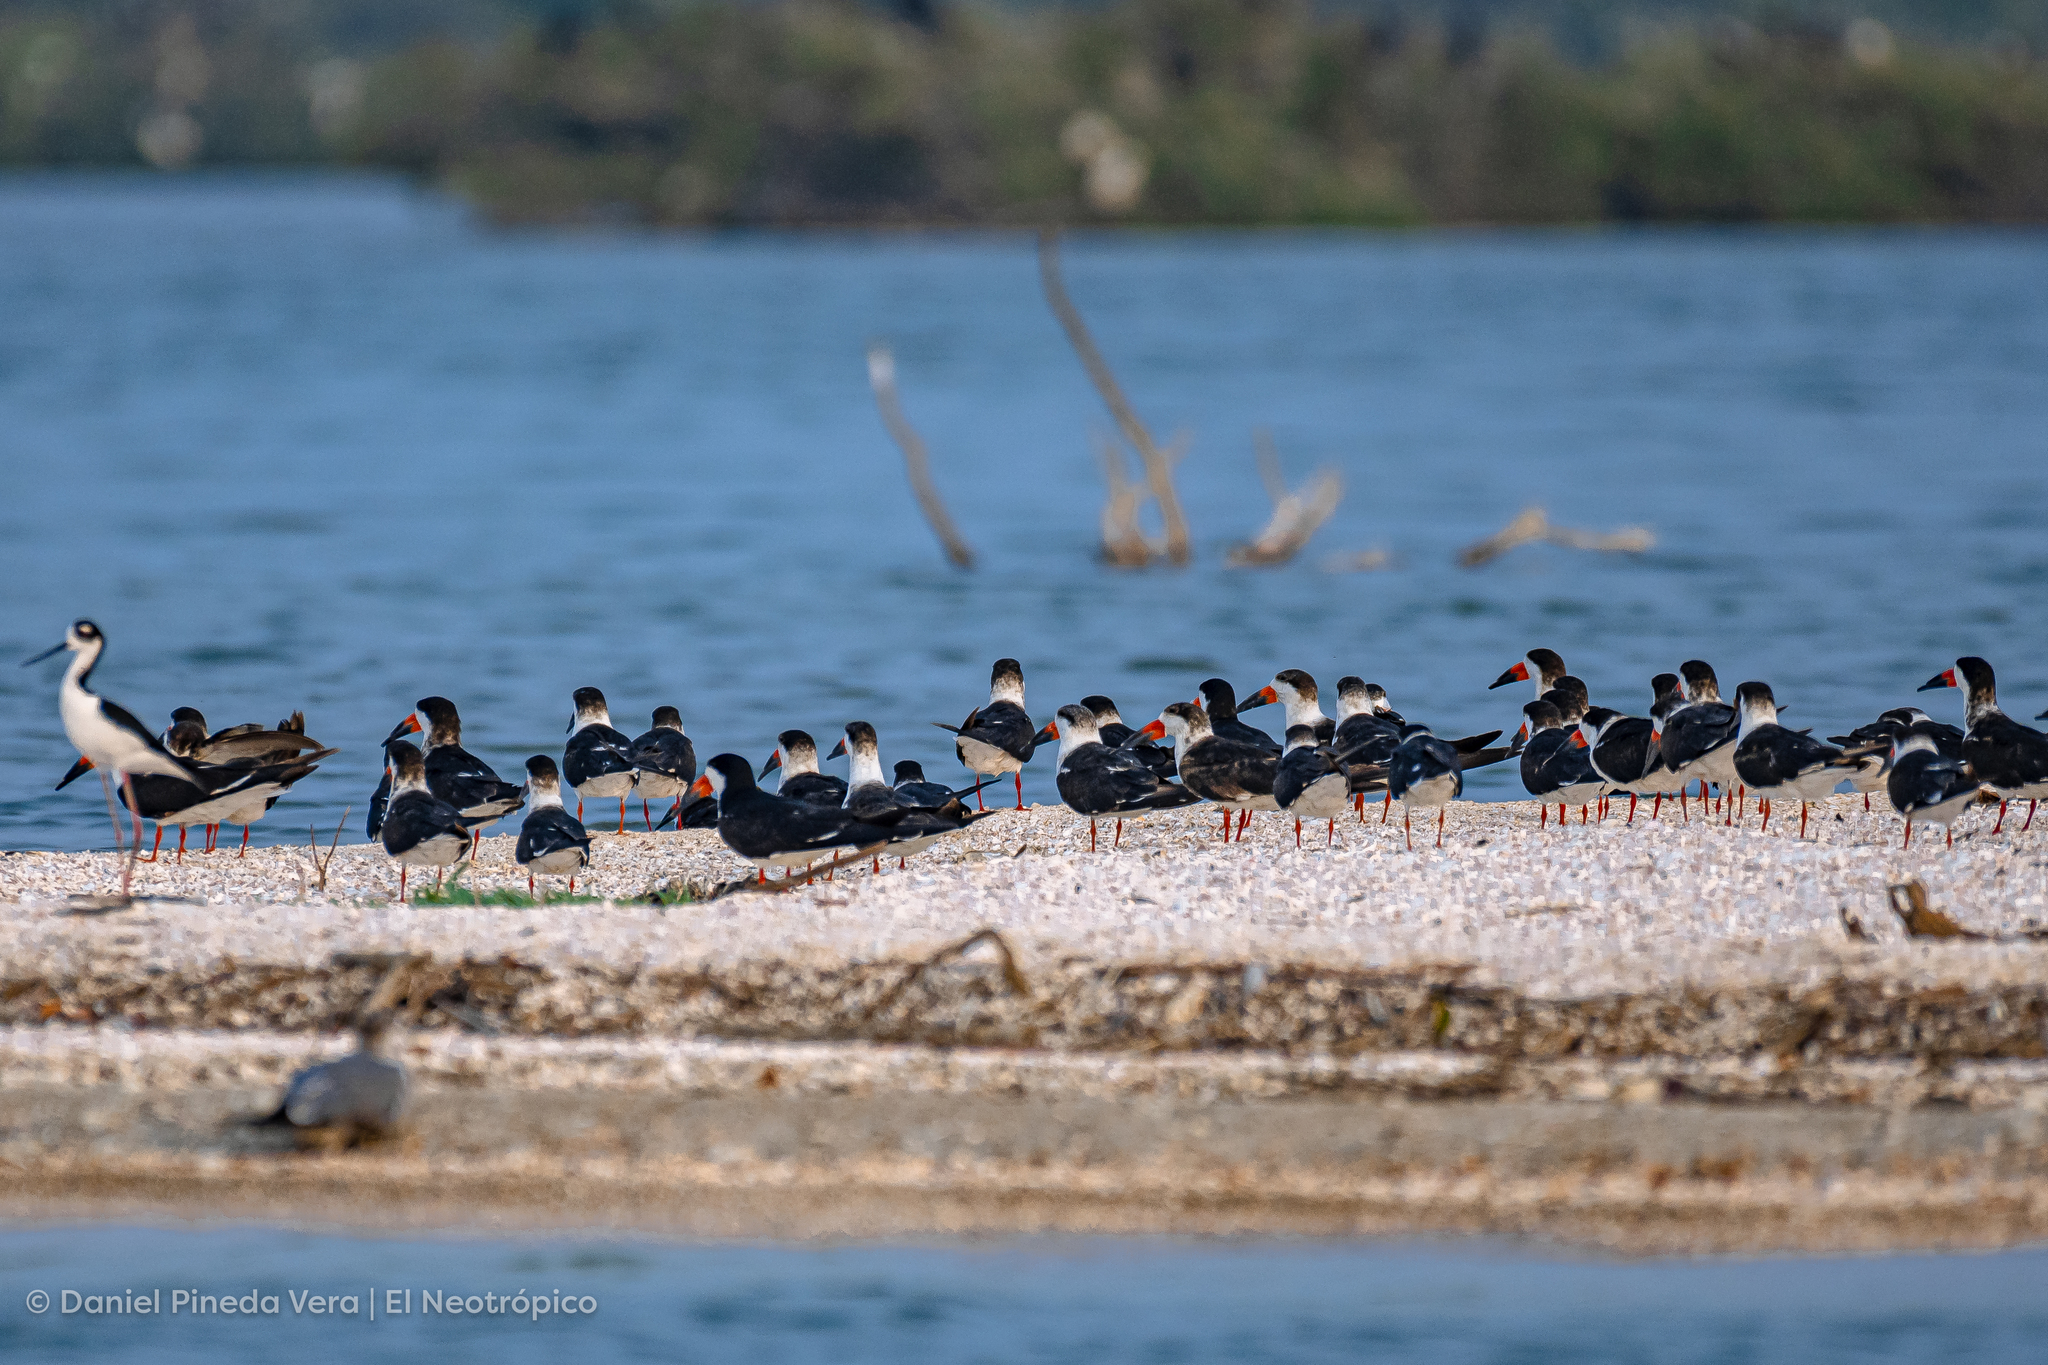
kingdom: Animalia
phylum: Chordata
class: Aves
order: Charadriiformes
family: Laridae
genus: Rynchops
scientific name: Rynchops niger
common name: Black skimmer
